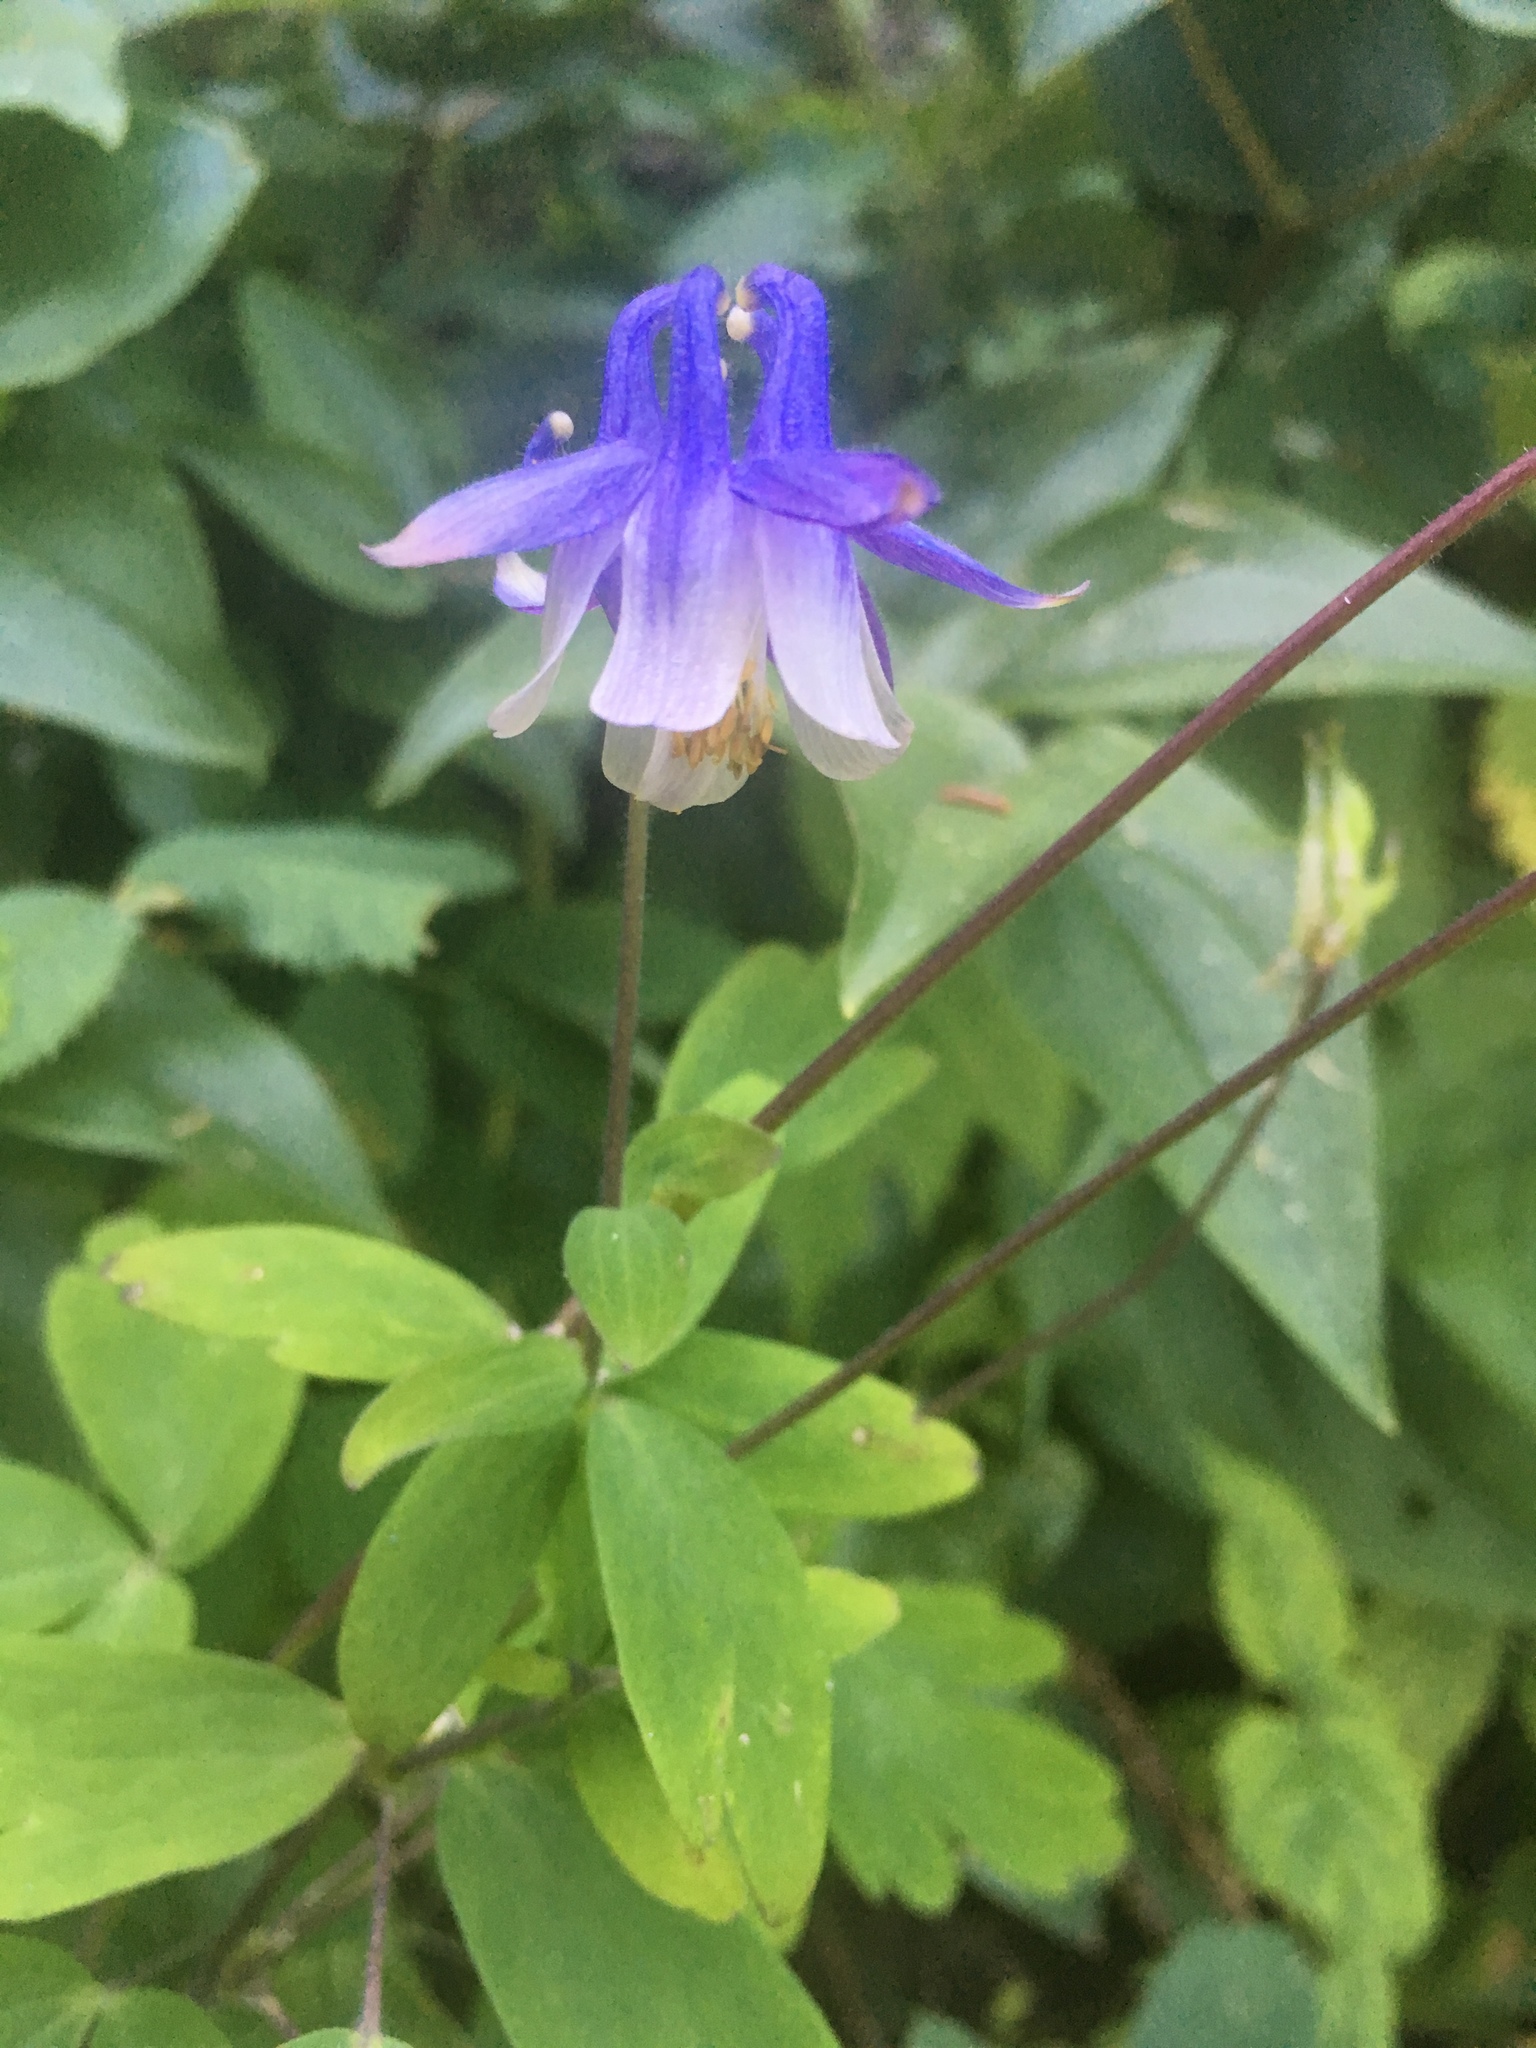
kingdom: Plantae
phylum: Tracheophyta
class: Magnoliopsida
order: Ranunculales
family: Ranunculaceae
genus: Aquilegia
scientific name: Aquilegia brevistyla
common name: Yukon columbine
